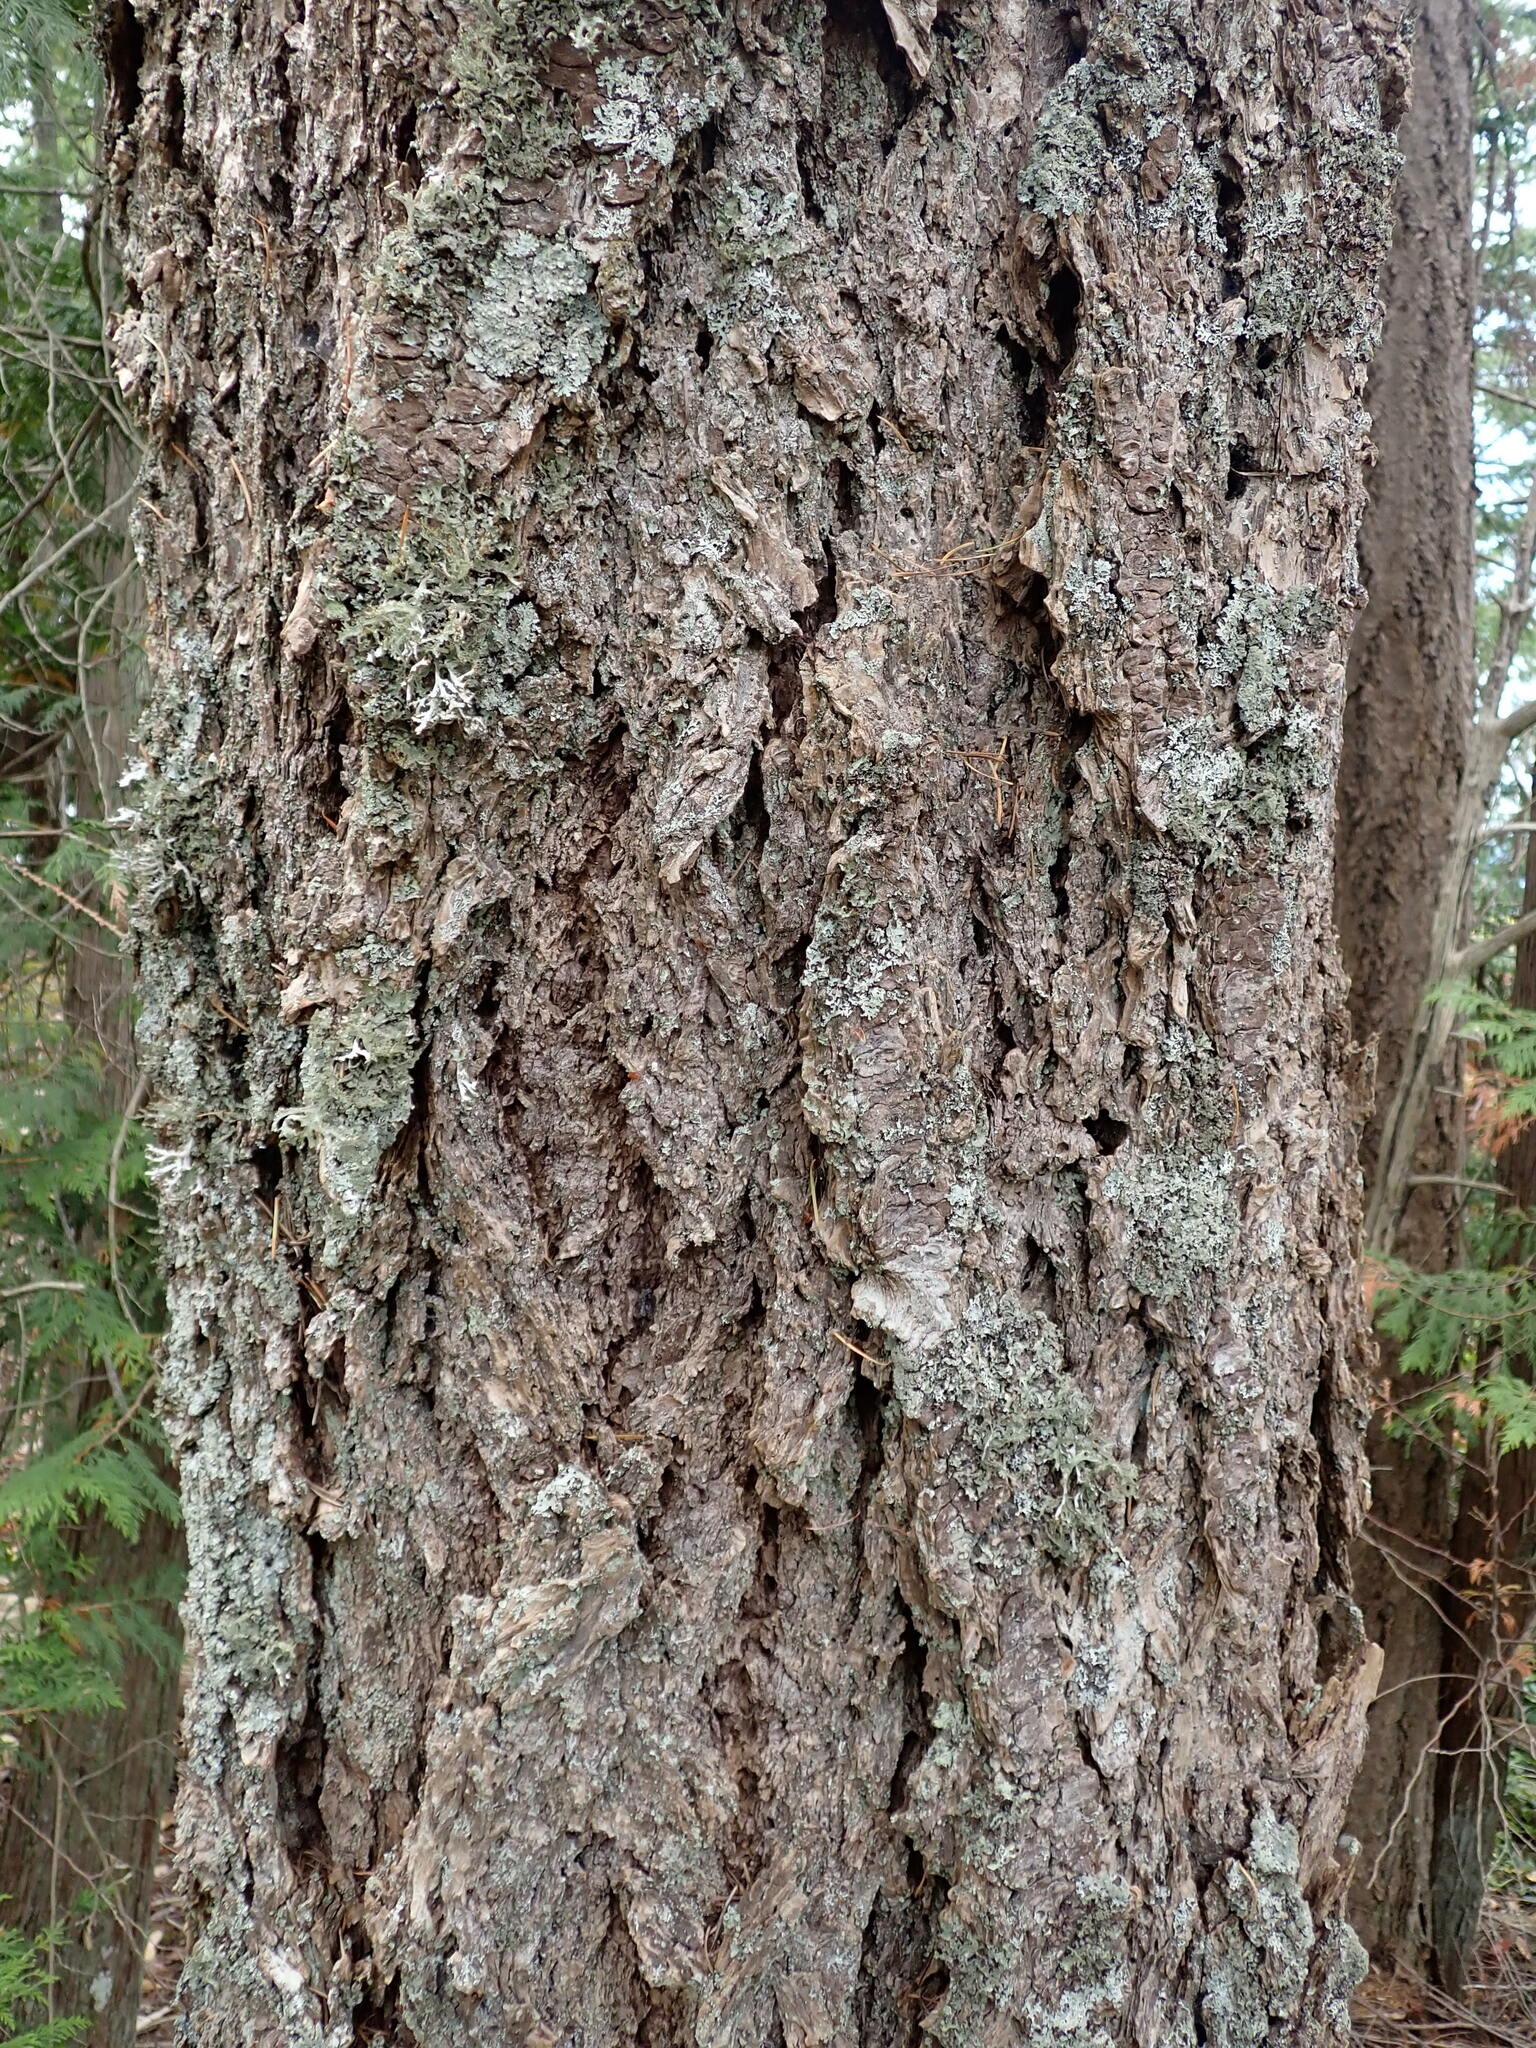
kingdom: Plantae
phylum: Tracheophyta
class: Pinopsida
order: Pinales
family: Pinaceae
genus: Pseudotsuga
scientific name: Pseudotsuga menziesii
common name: Douglas fir
